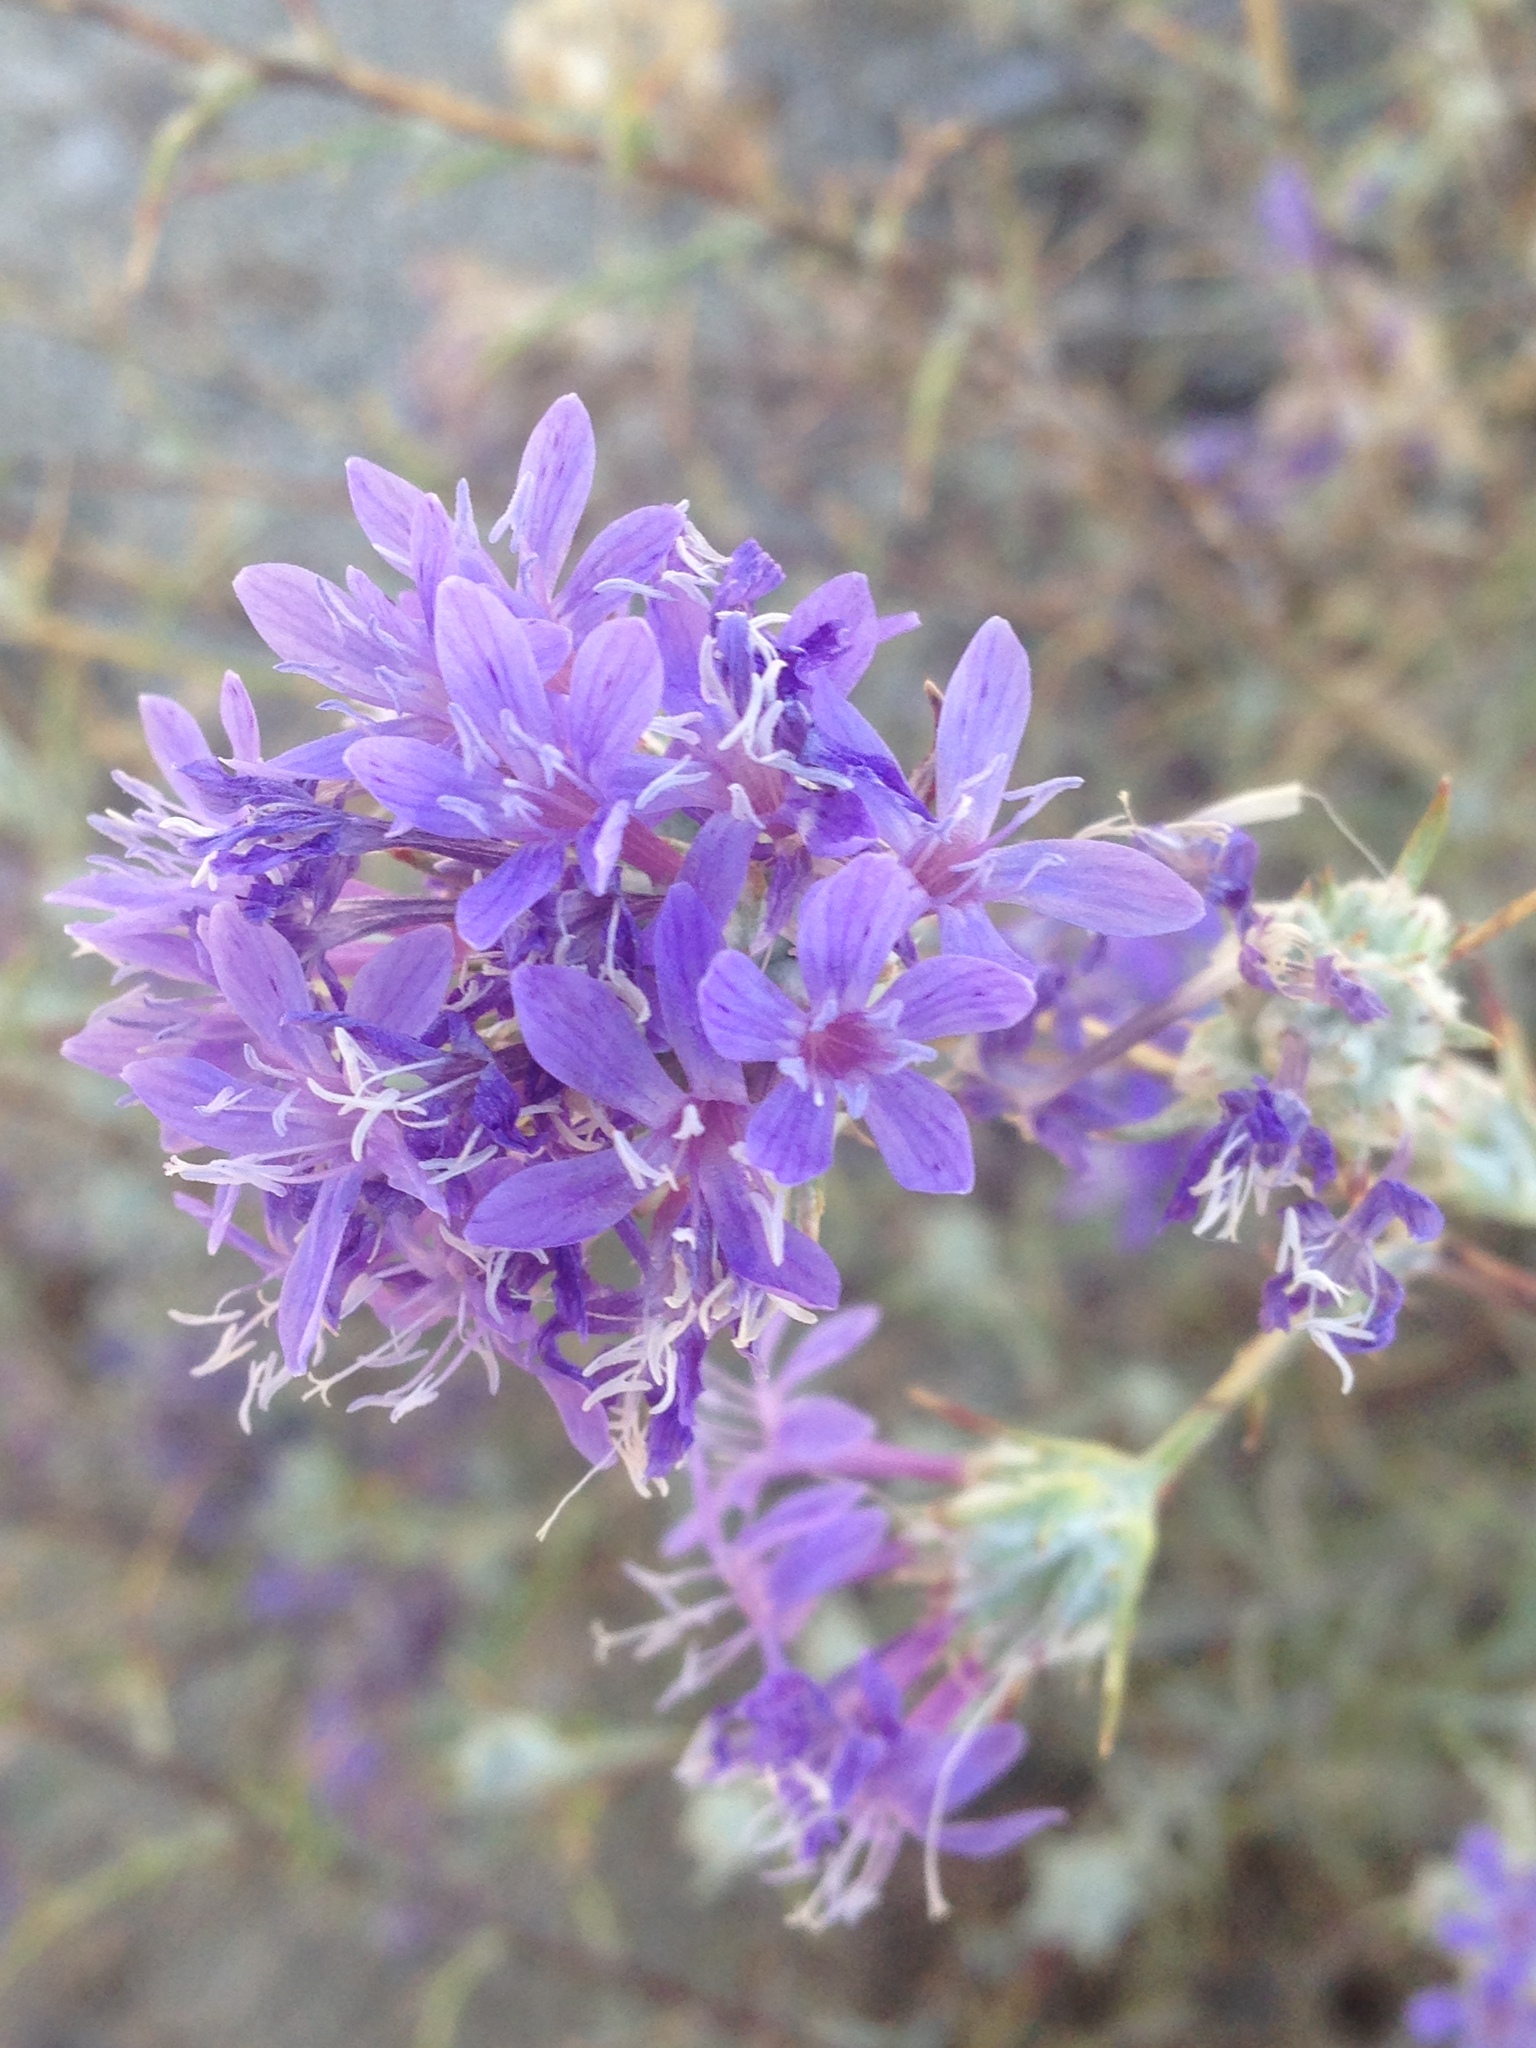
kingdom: Plantae
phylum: Tracheophyta
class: Magnoliopsida
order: Ericales
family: Polemoniaceae
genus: Eriastrum
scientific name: Eriastrum densifolium
